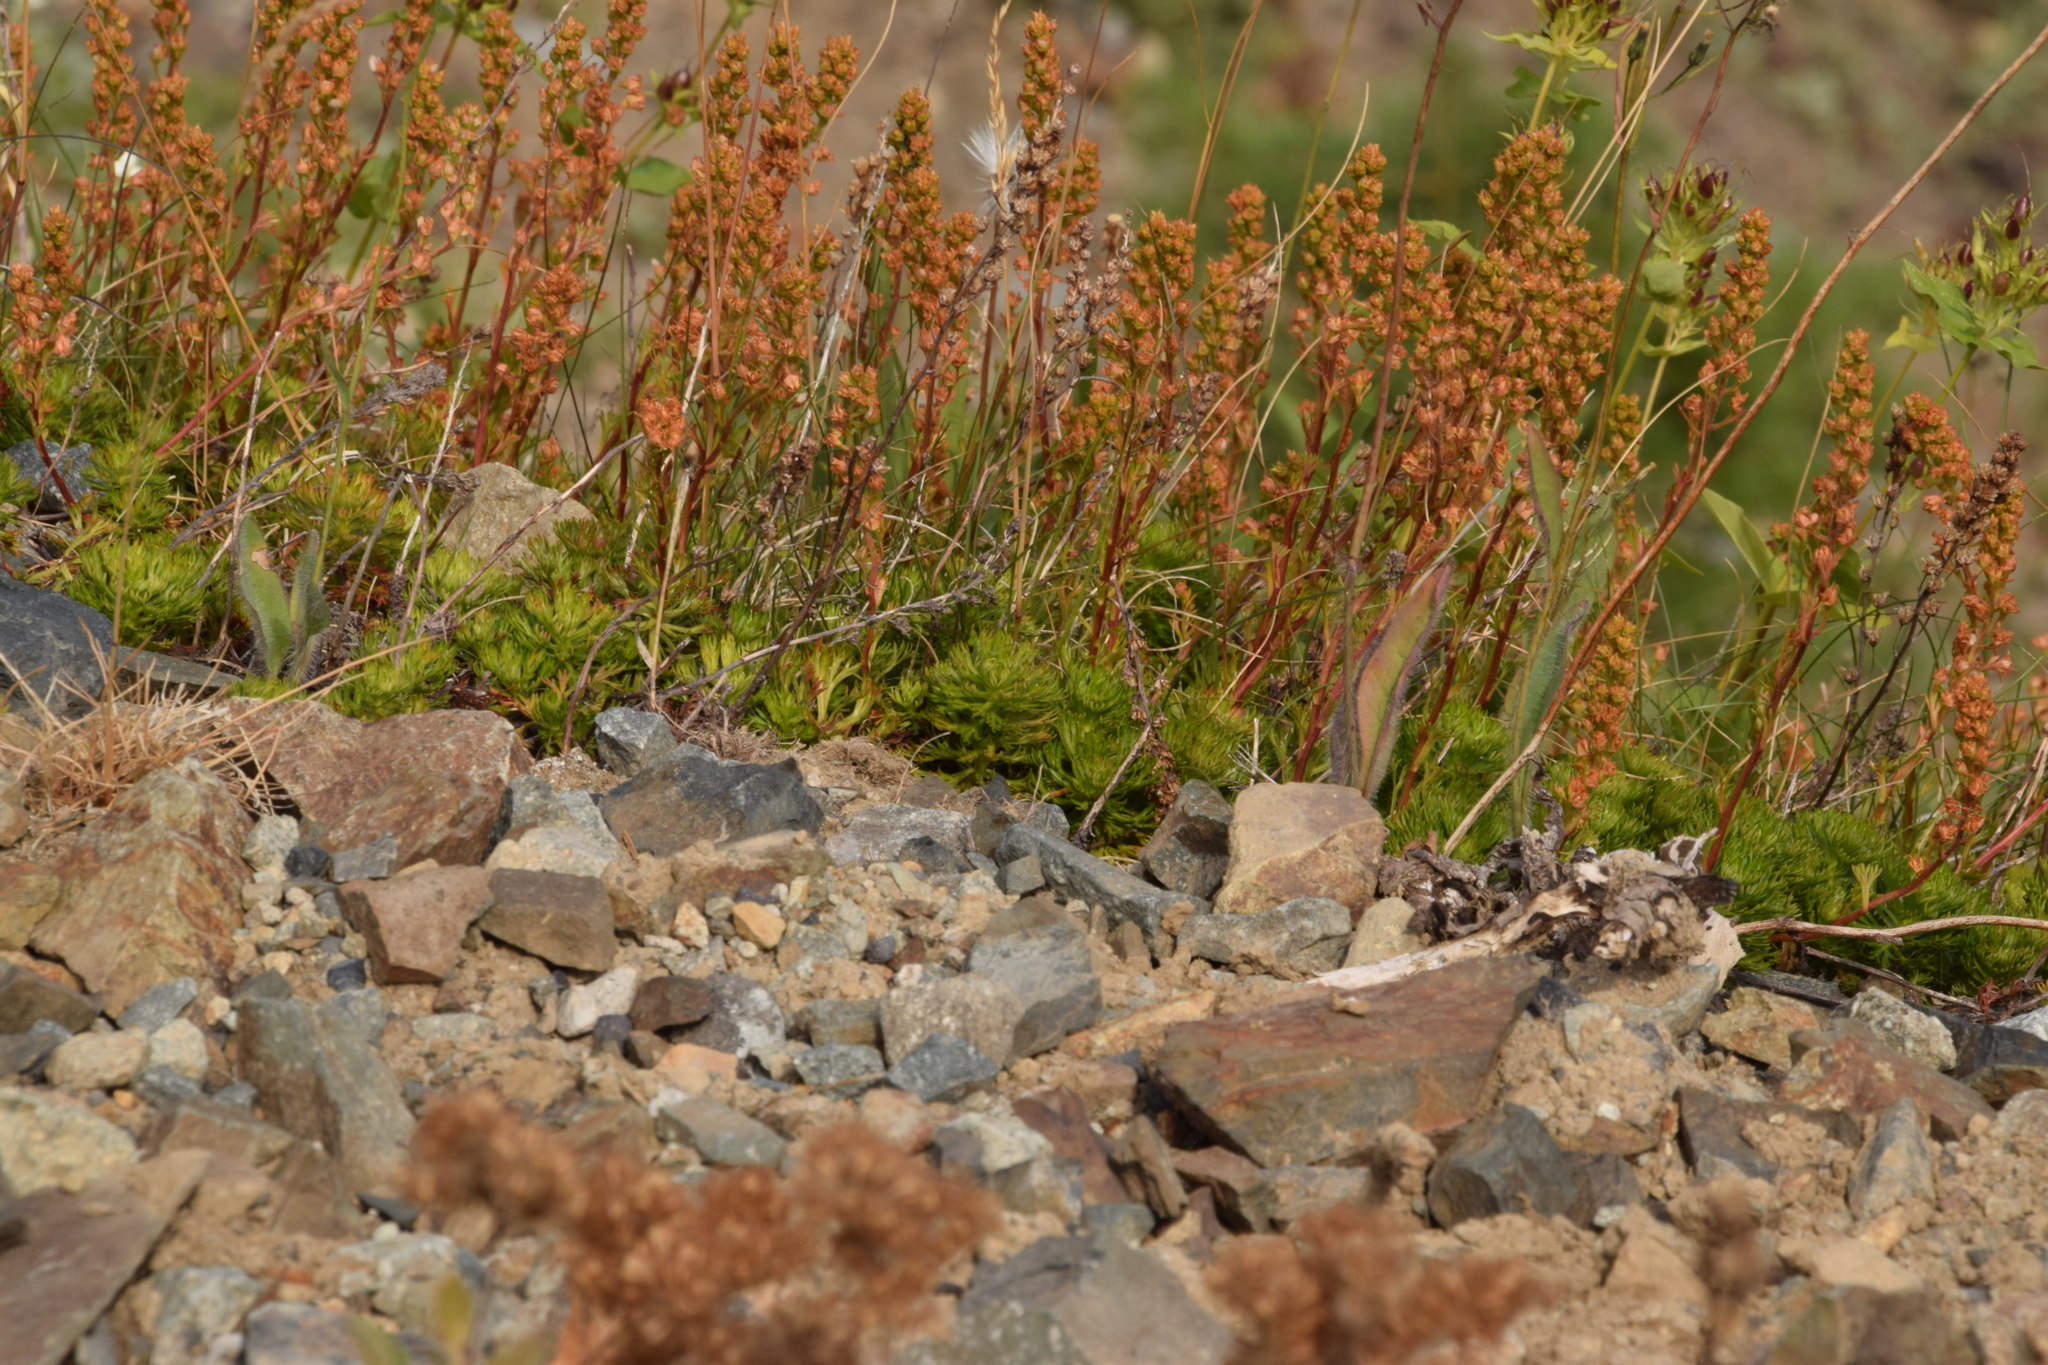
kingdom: Plantae
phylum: Tracheophyta
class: Magnoliopsida
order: Rosales
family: Rosaceae
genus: Luetkea
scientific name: Luetkea pectinata
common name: Partridgefoot
